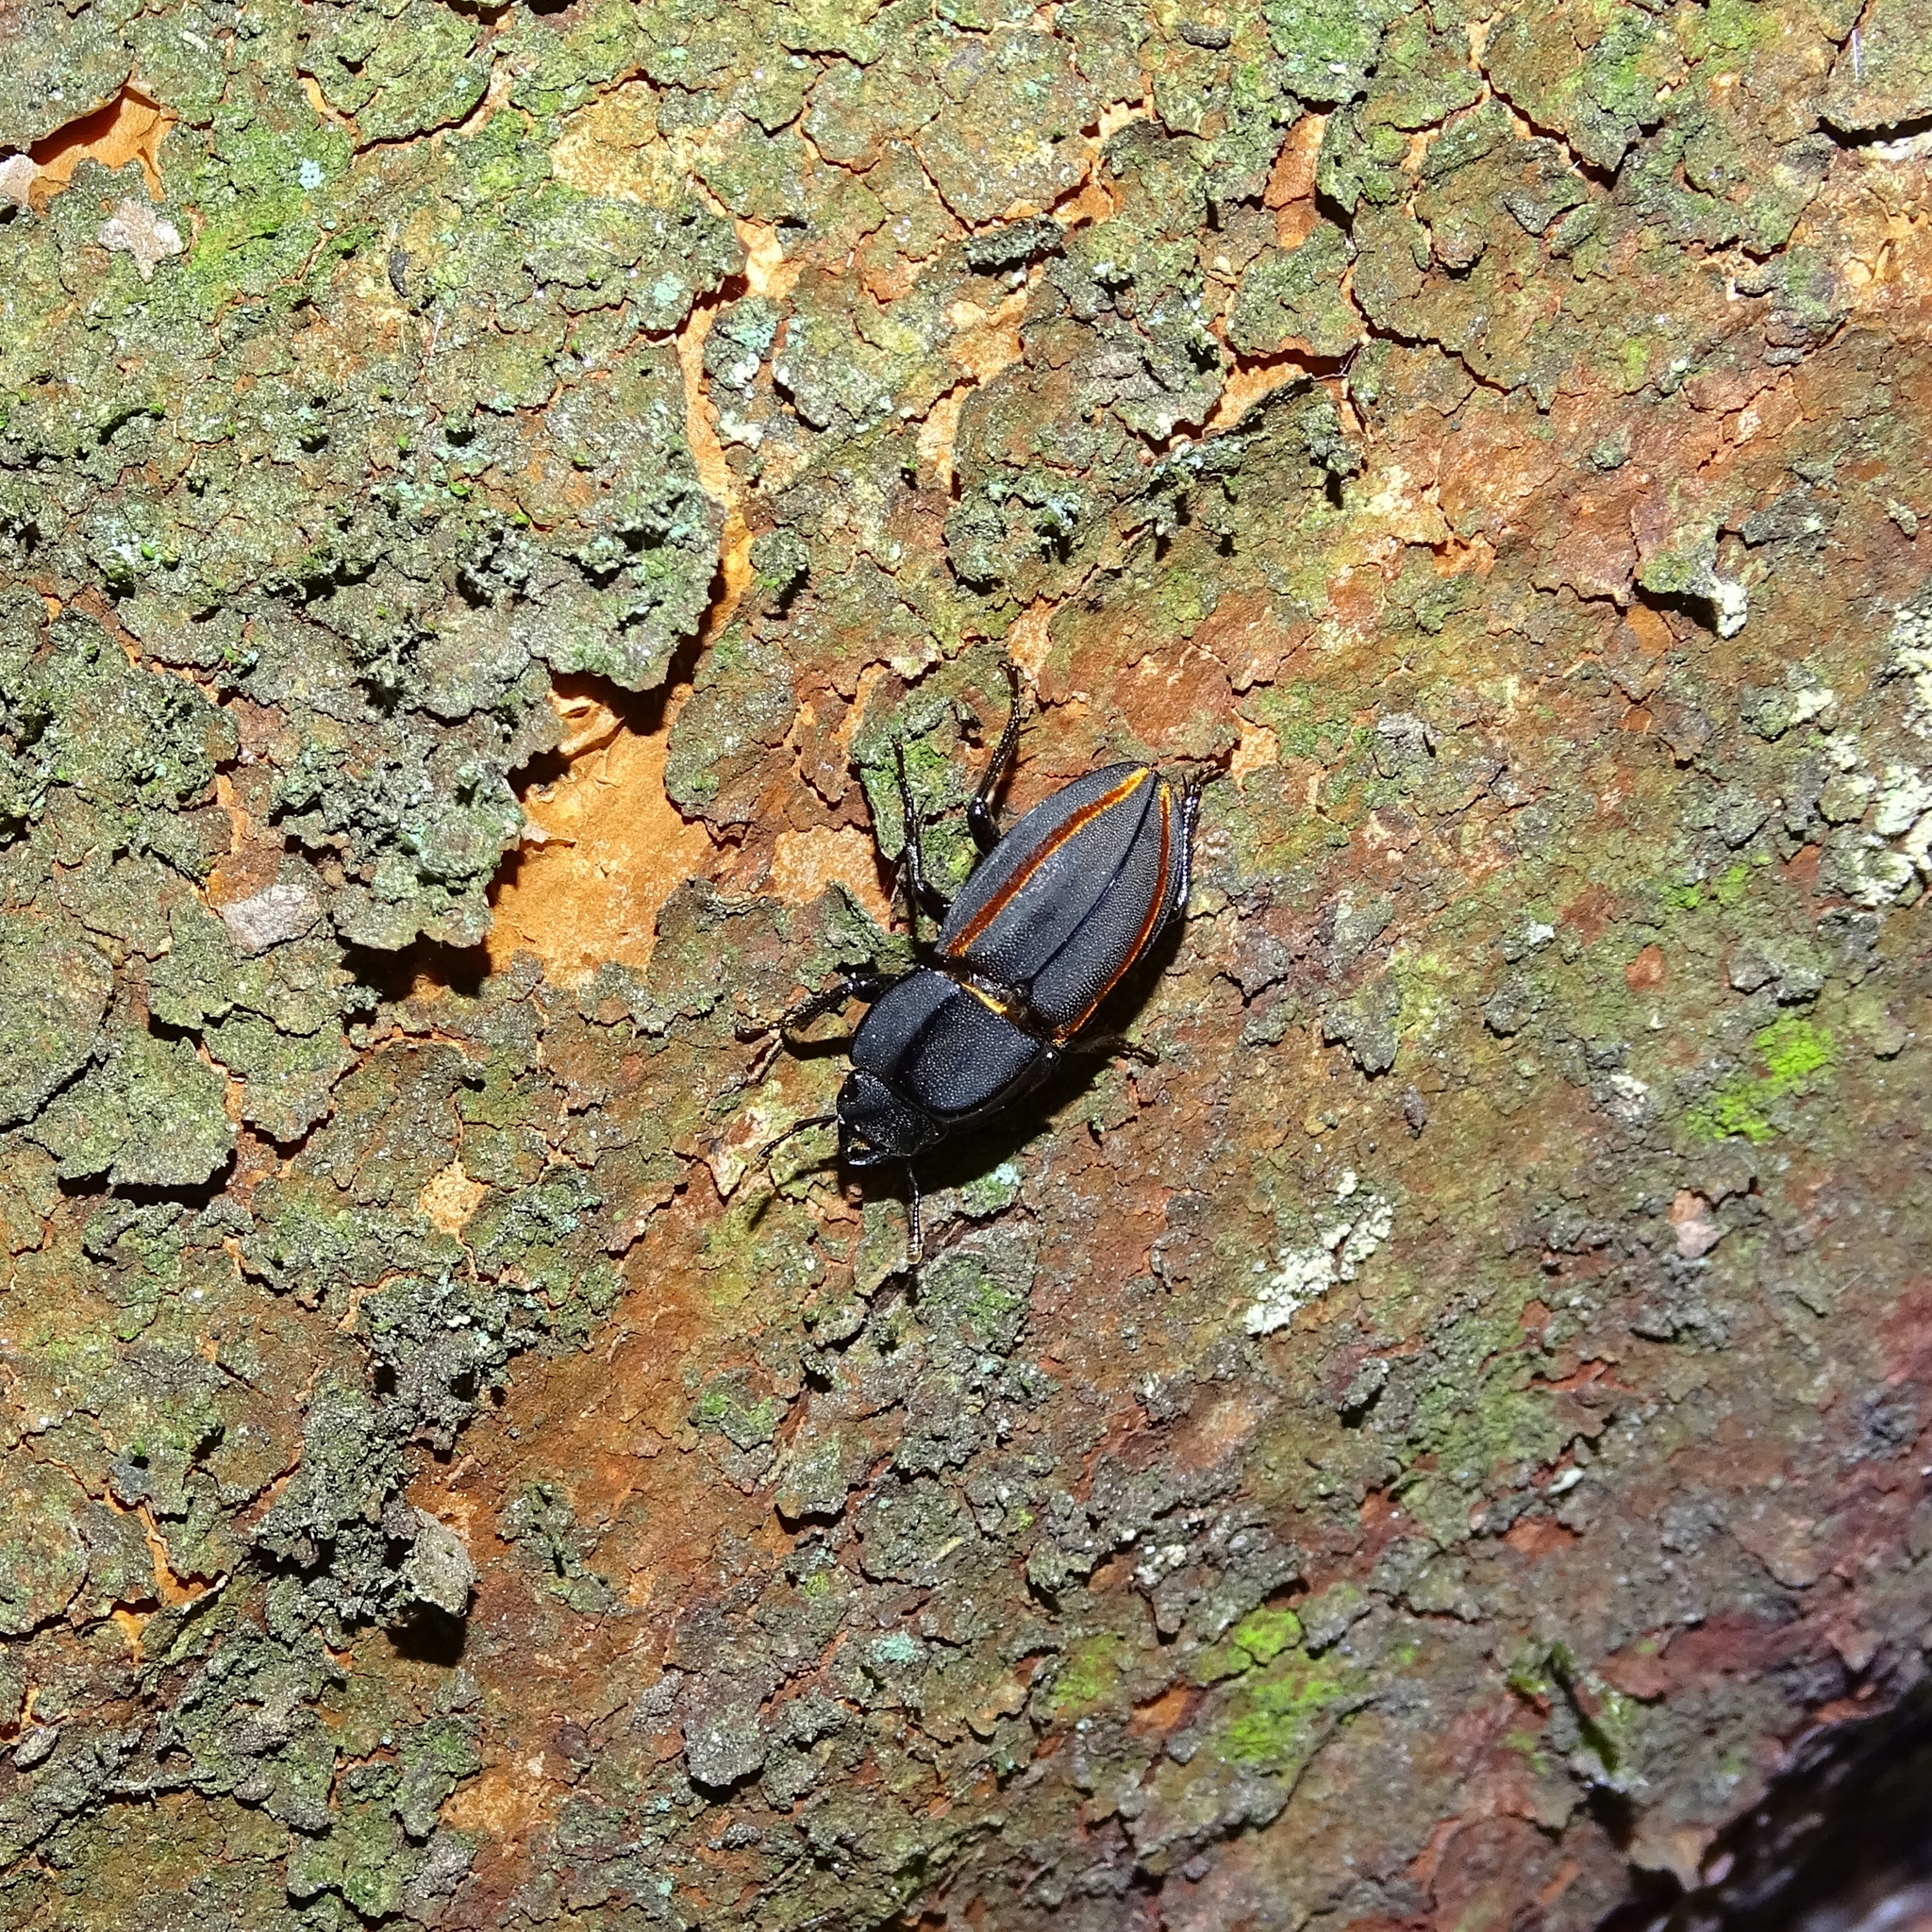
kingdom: Animalia
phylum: Arthropoda
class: Insecta
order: Coleoptera
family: Lucanidae
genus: Erichius
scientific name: Erichius vittatus
